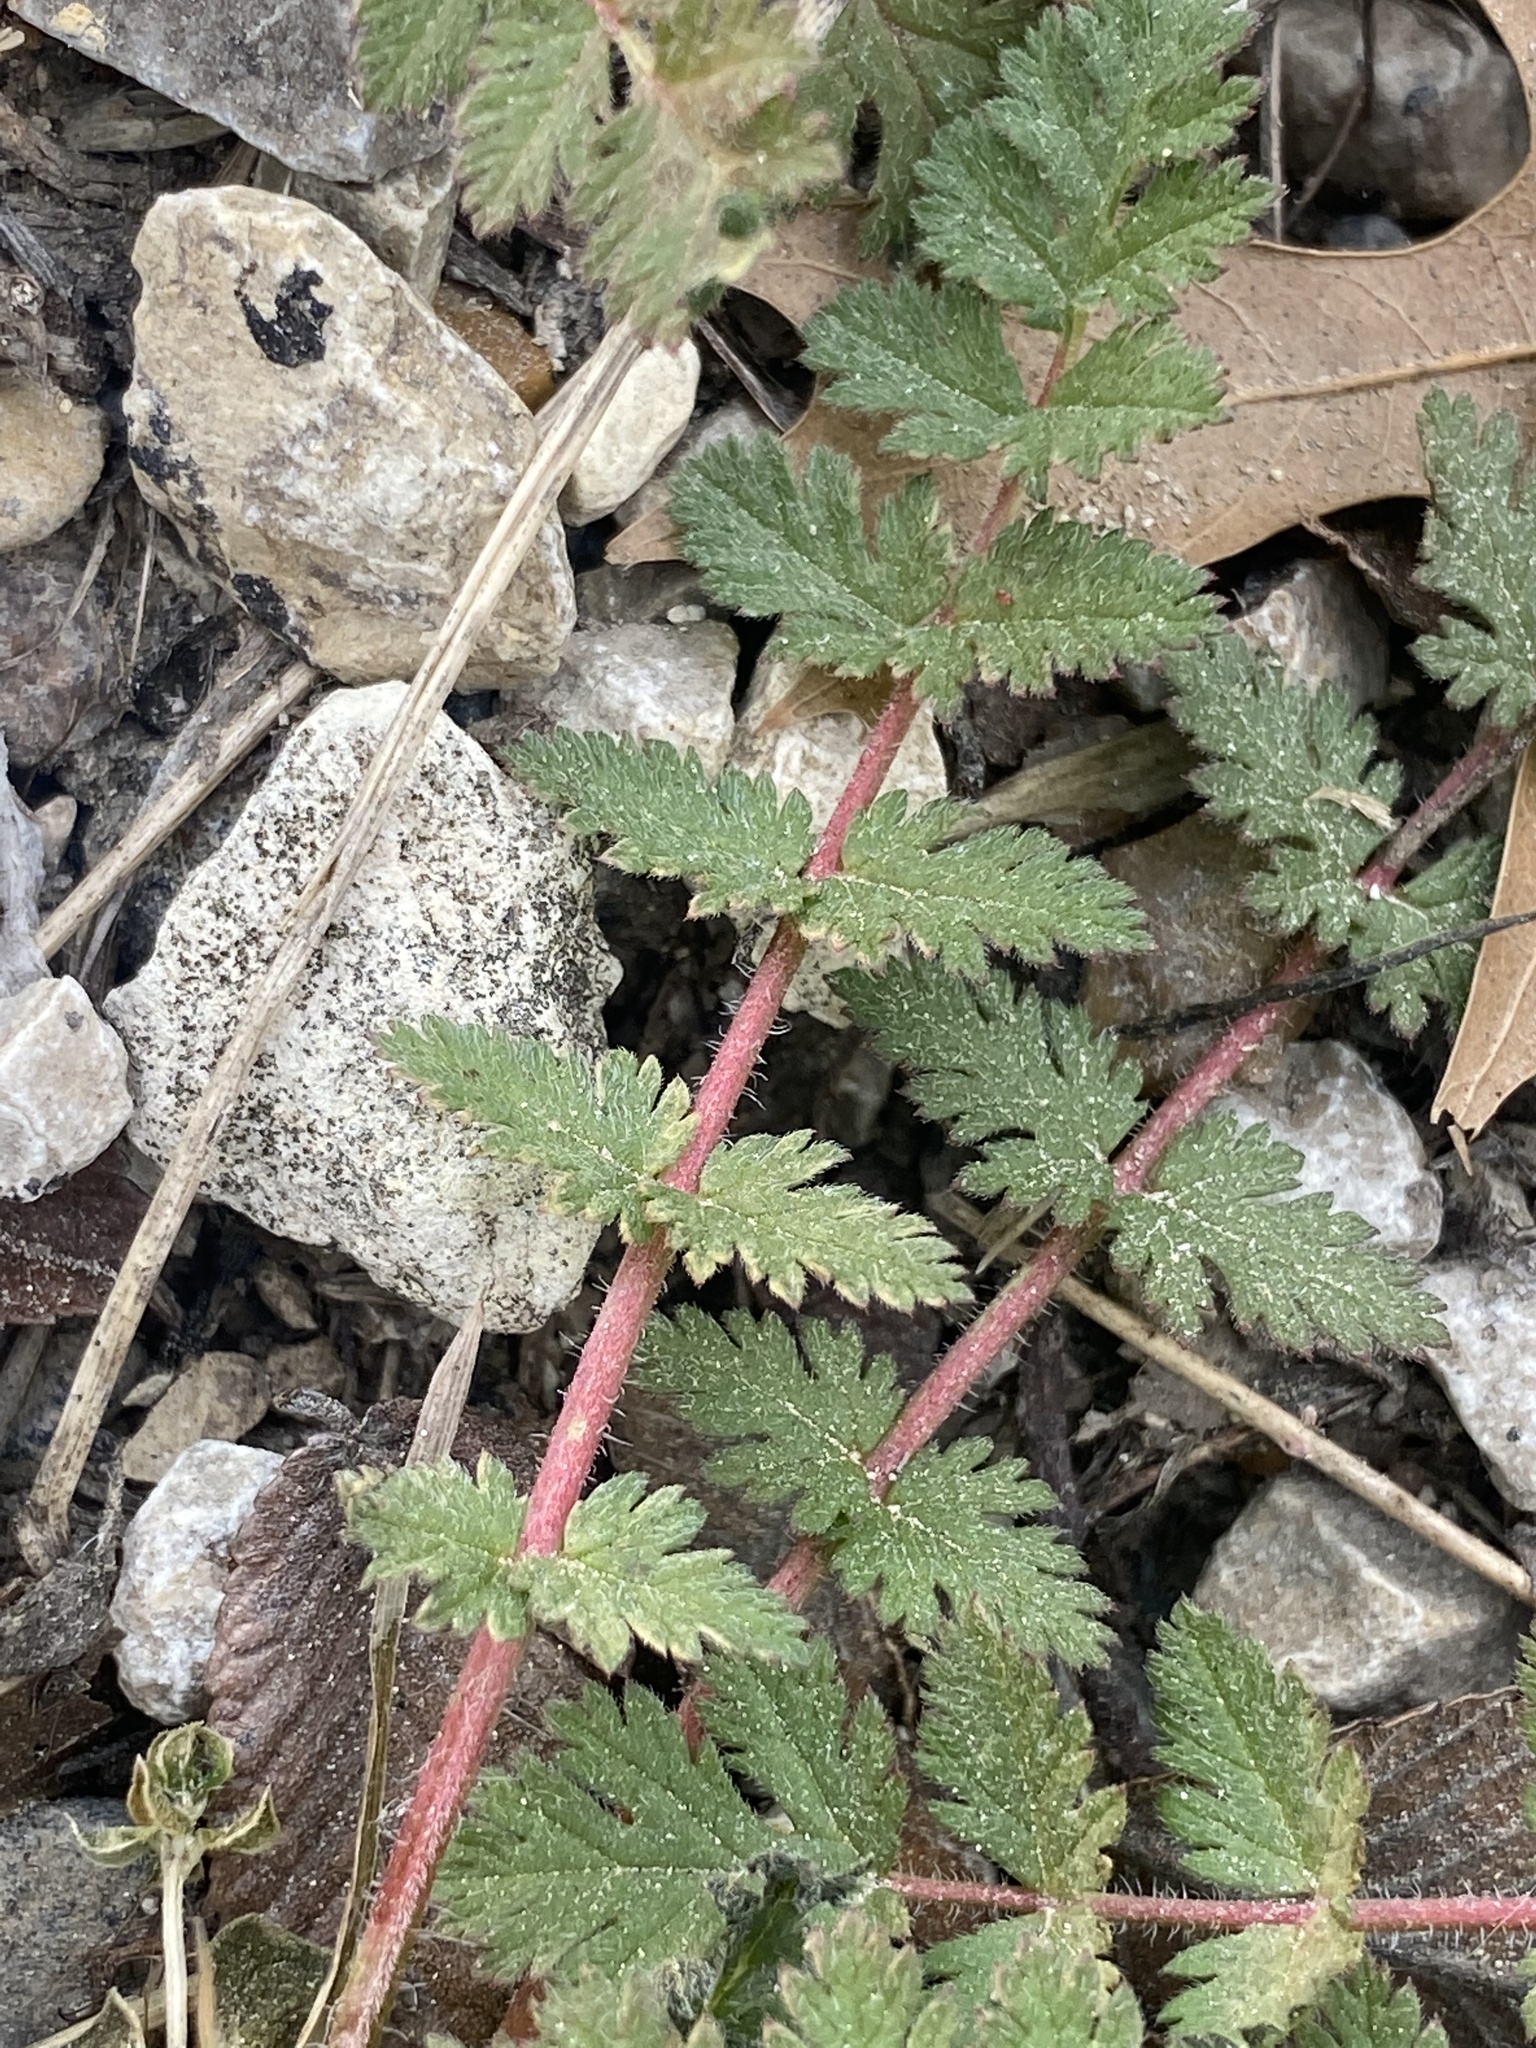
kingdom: Plantae
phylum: Tracheophyta
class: Magnoliopsida
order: Geraniales
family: Geraniaceae
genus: Erodium
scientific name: Erodium cicutarium
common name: Common stork's-bill
